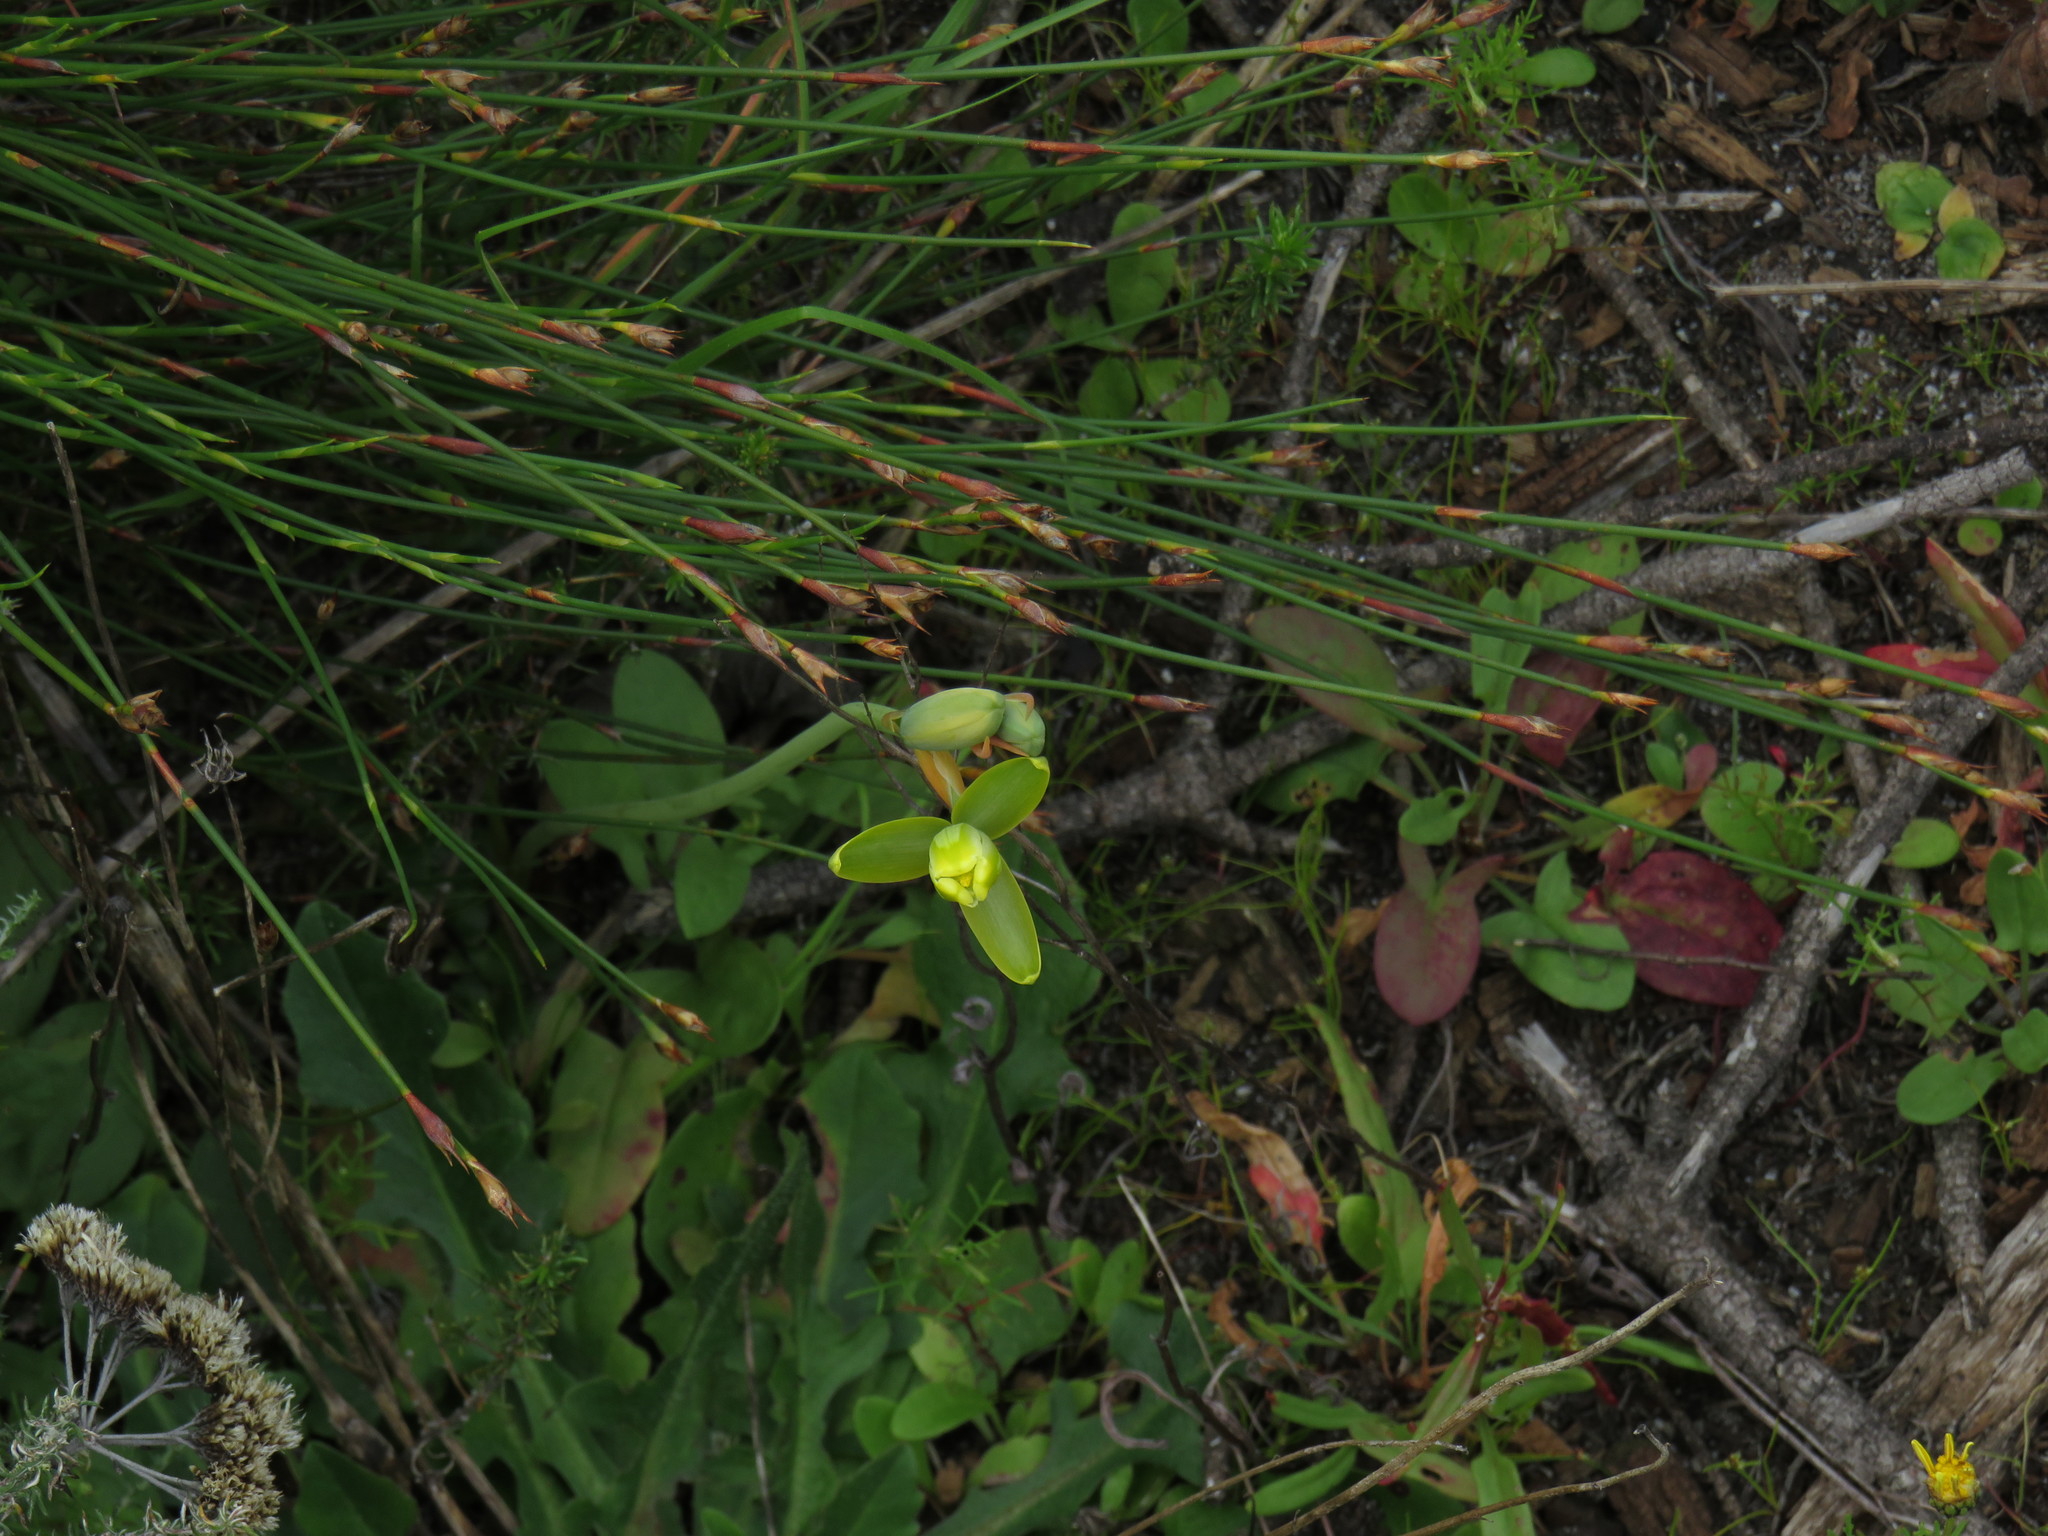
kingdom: Plantae
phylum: Tracheophyta
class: Liliopsida
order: Asparagales
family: Asparagaceae
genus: Albuca
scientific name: Albuca cooperi
